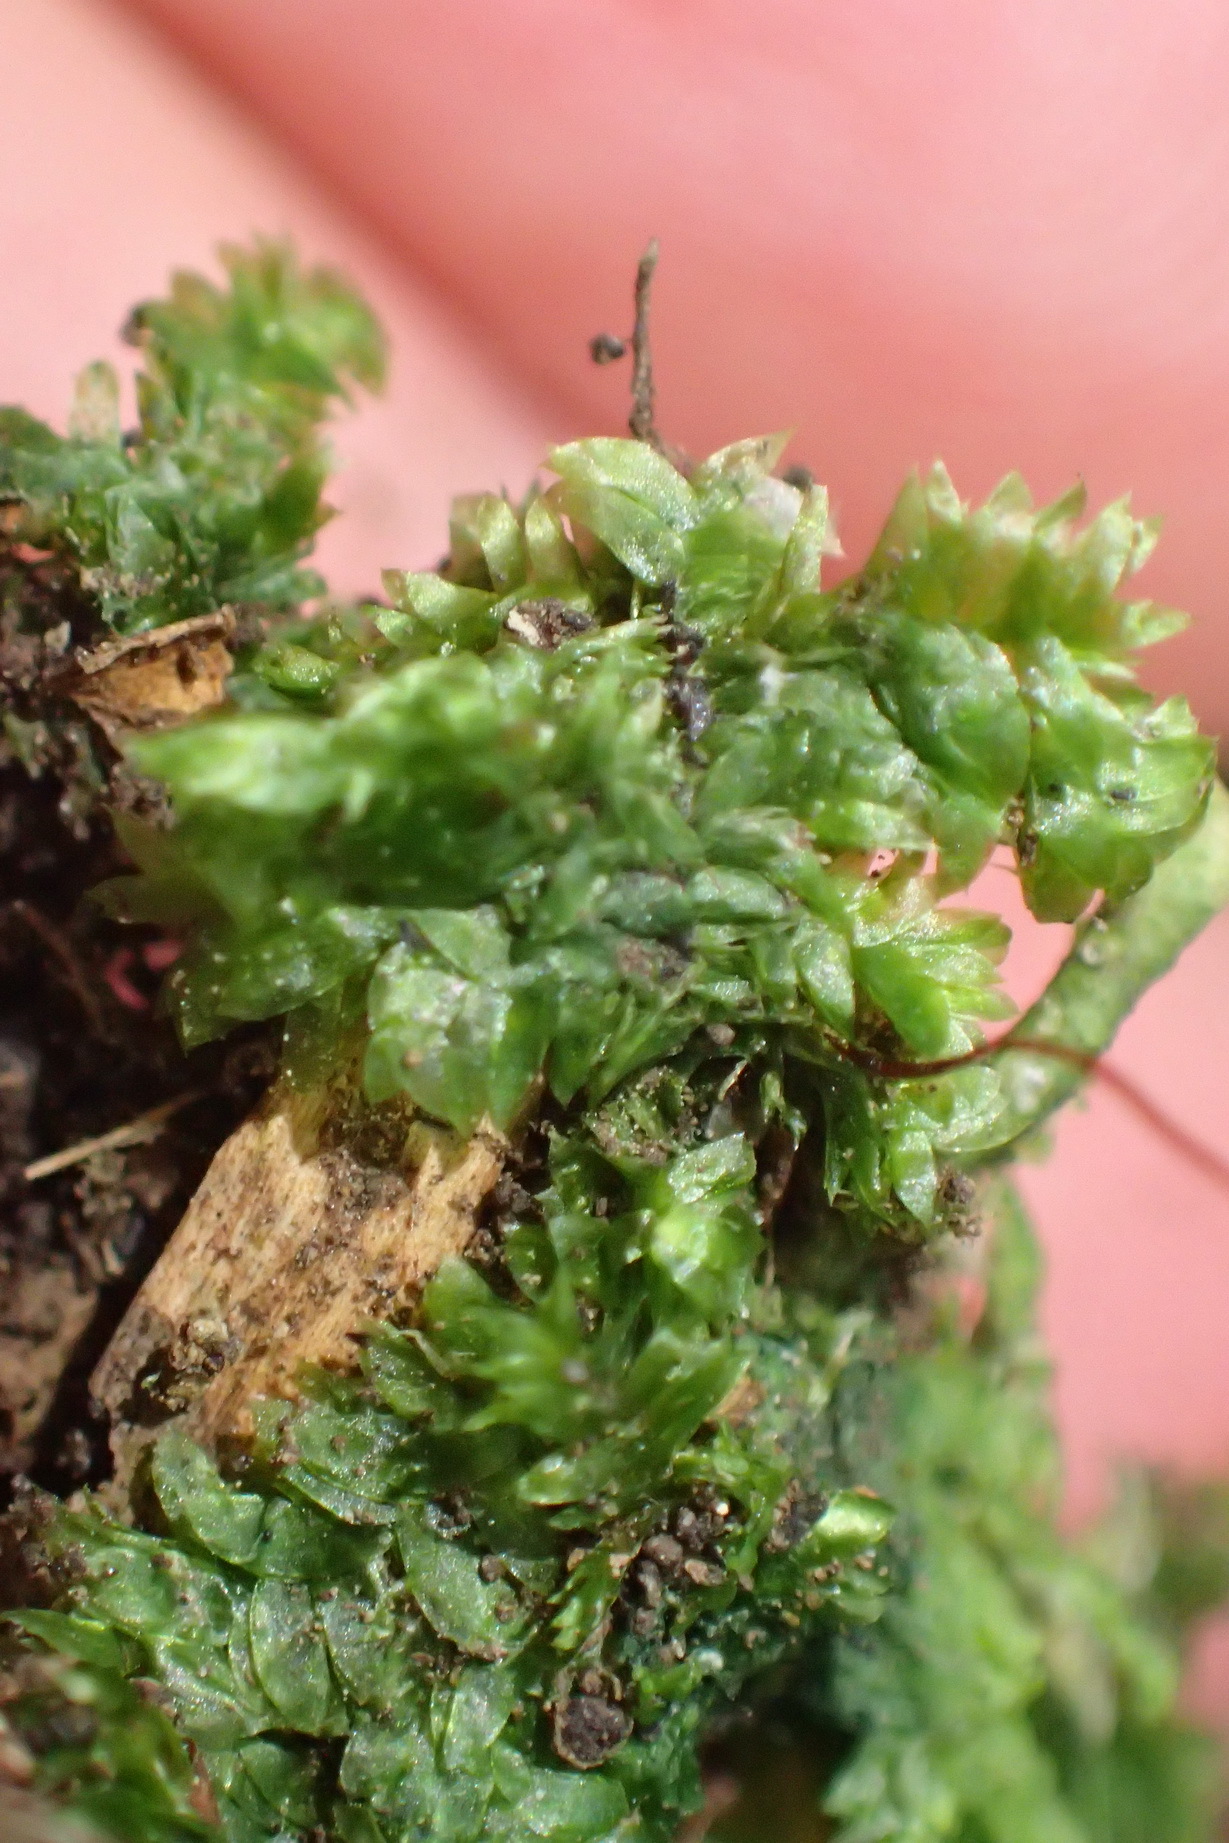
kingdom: Plantae
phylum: Bryophyta
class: Bryopsida
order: Hookeriales
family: Pilotrichaceae
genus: Thamniopsis
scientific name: Thamniopsis utacamundiana
